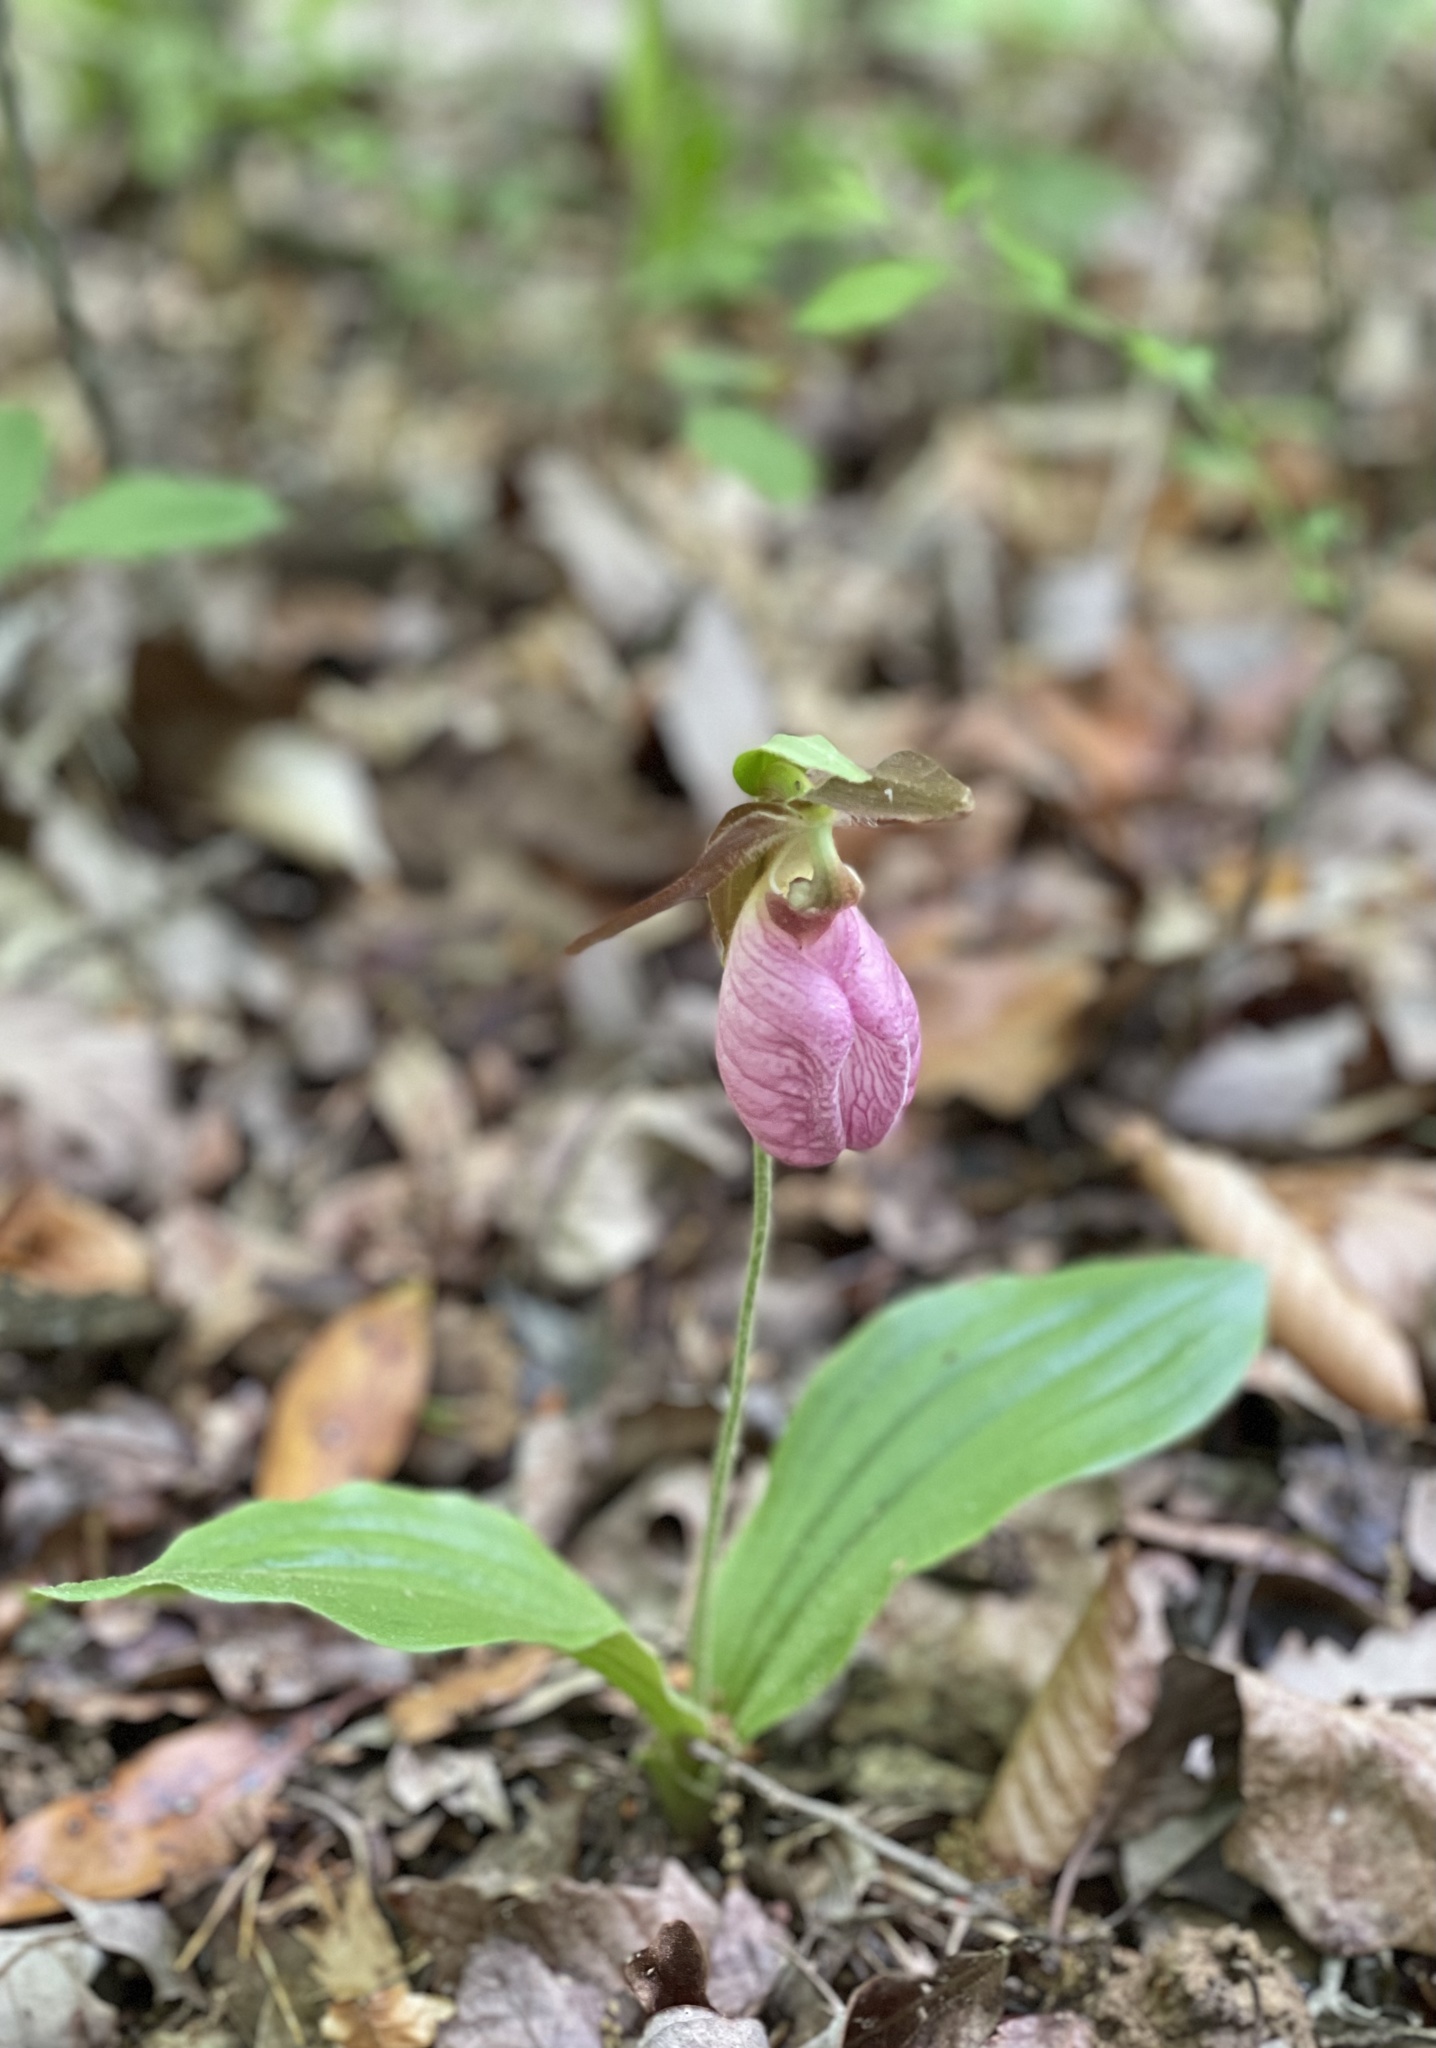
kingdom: Plantae
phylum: Tracheophyta
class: Liliopsida
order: Asparagales
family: Orchidaceae
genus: Cypripedium
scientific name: Cypripedium acaule
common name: Pink lady's-slipper
